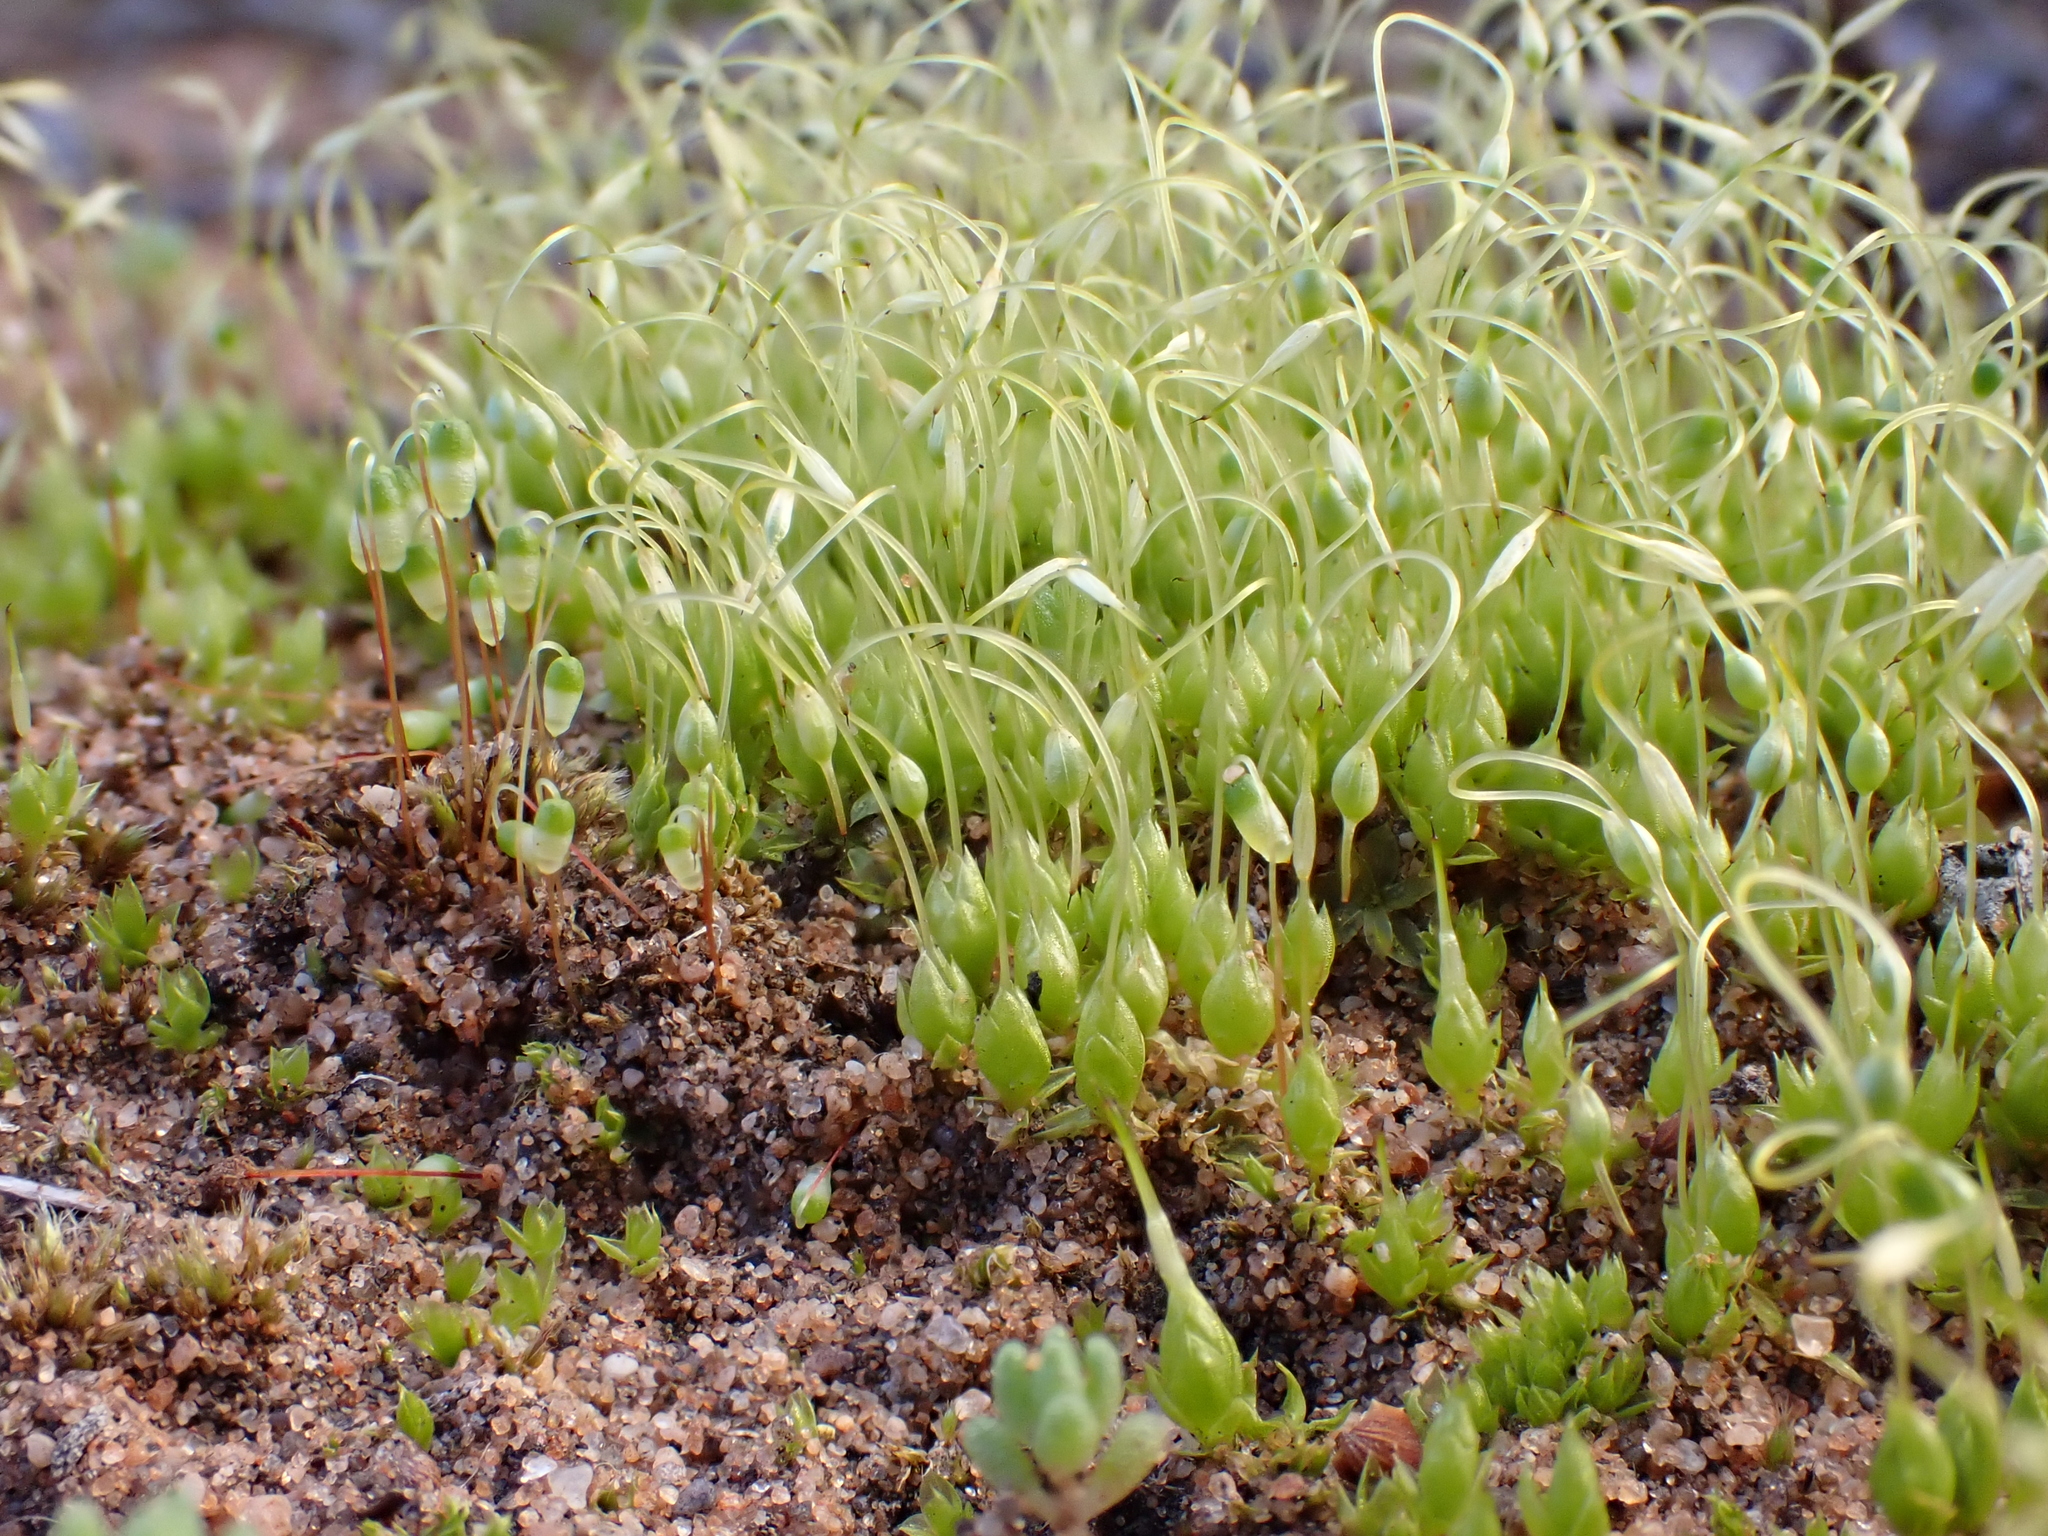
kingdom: Plantae
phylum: Bryophyta
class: Bryopsida
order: Funariales
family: Funariaceae
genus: Funaria
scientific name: Funaria hygrometrica
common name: Common cord moss
